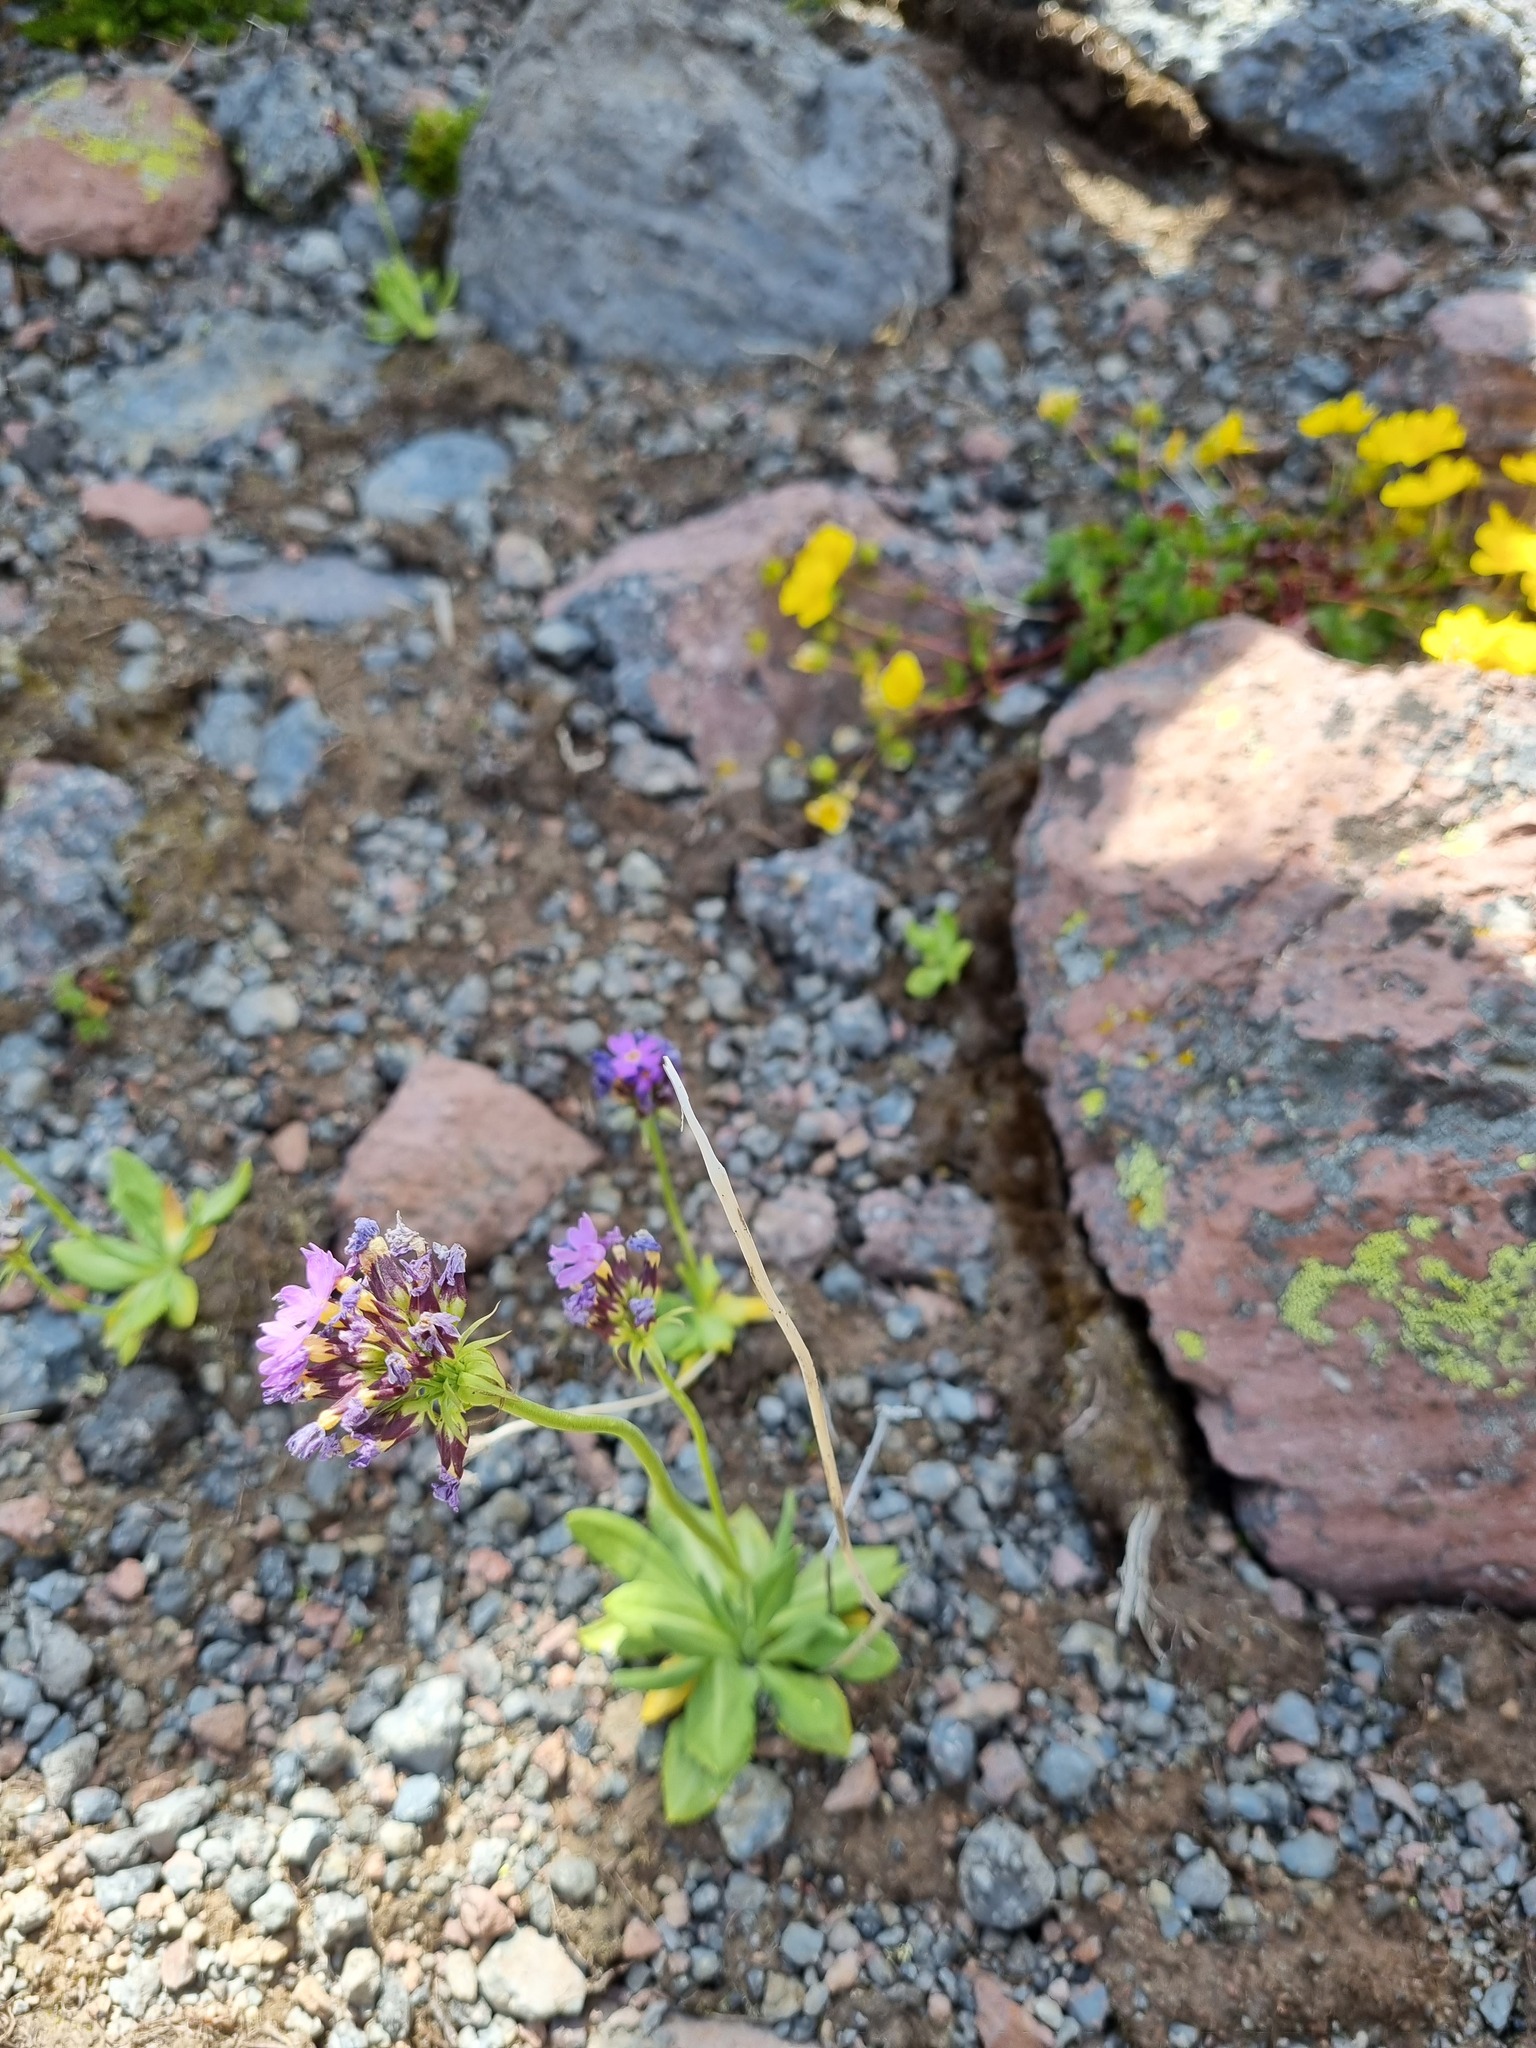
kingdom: Plantae
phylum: Tracheophyta
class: Magnoliopsida
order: Ericales
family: Primulaceae
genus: Primula
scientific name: Primula algida
